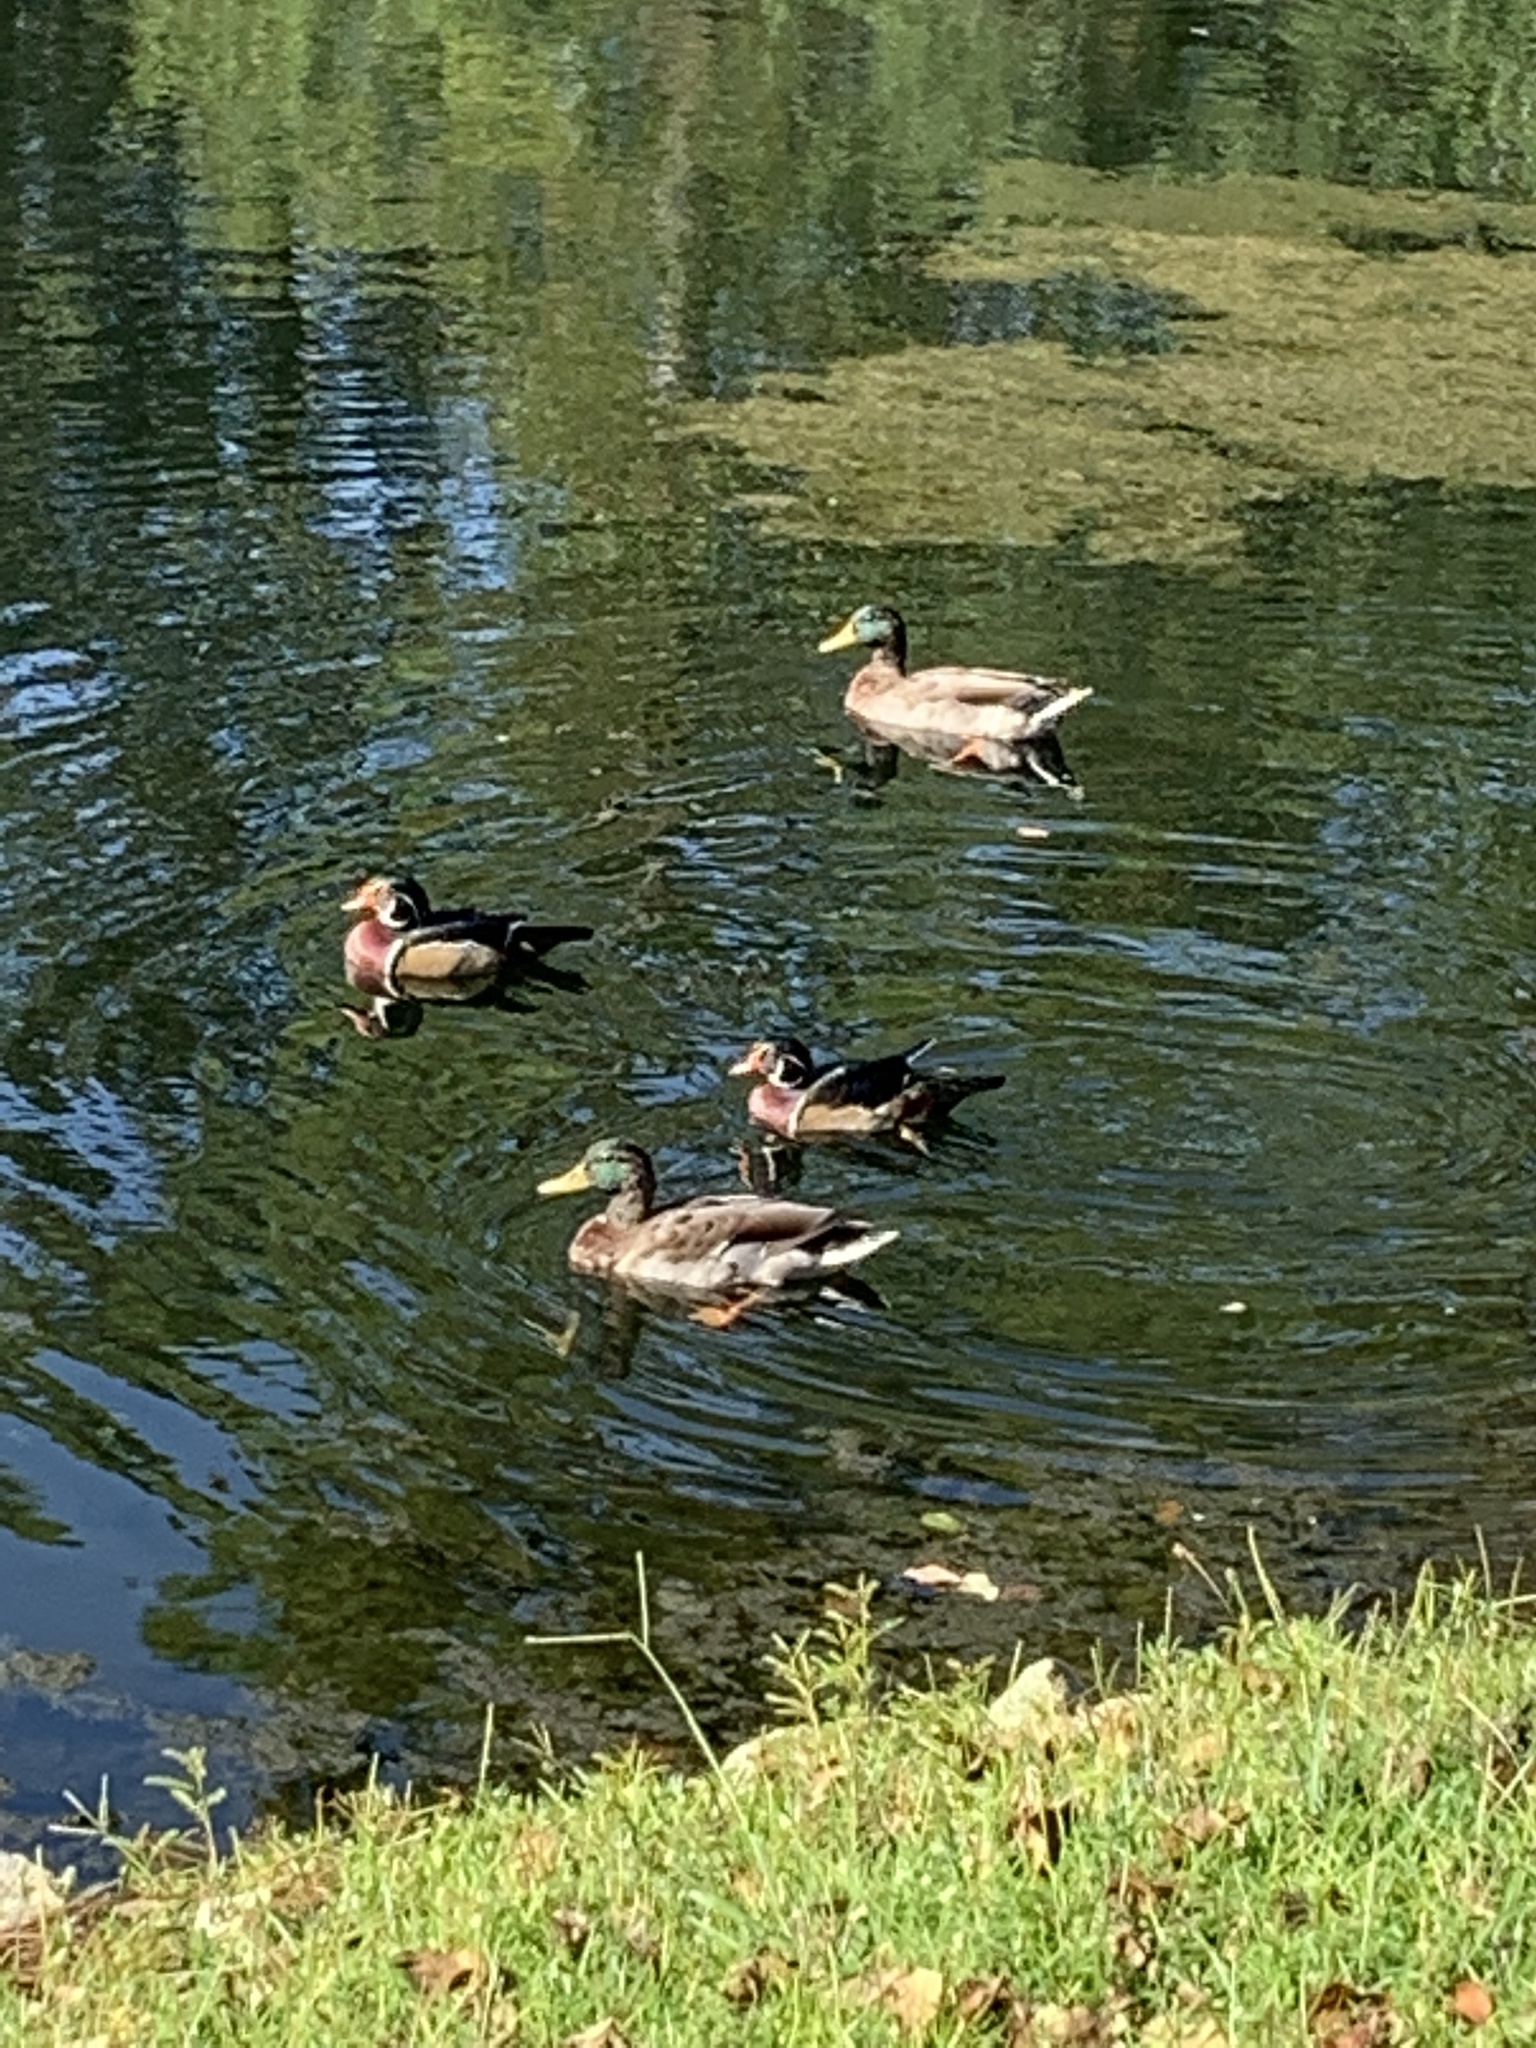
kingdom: Animalia
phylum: Chordata
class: Aves
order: Anseriformes
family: Anatidae
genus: Anas
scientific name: Anas platyrhynchos
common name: Mallard
